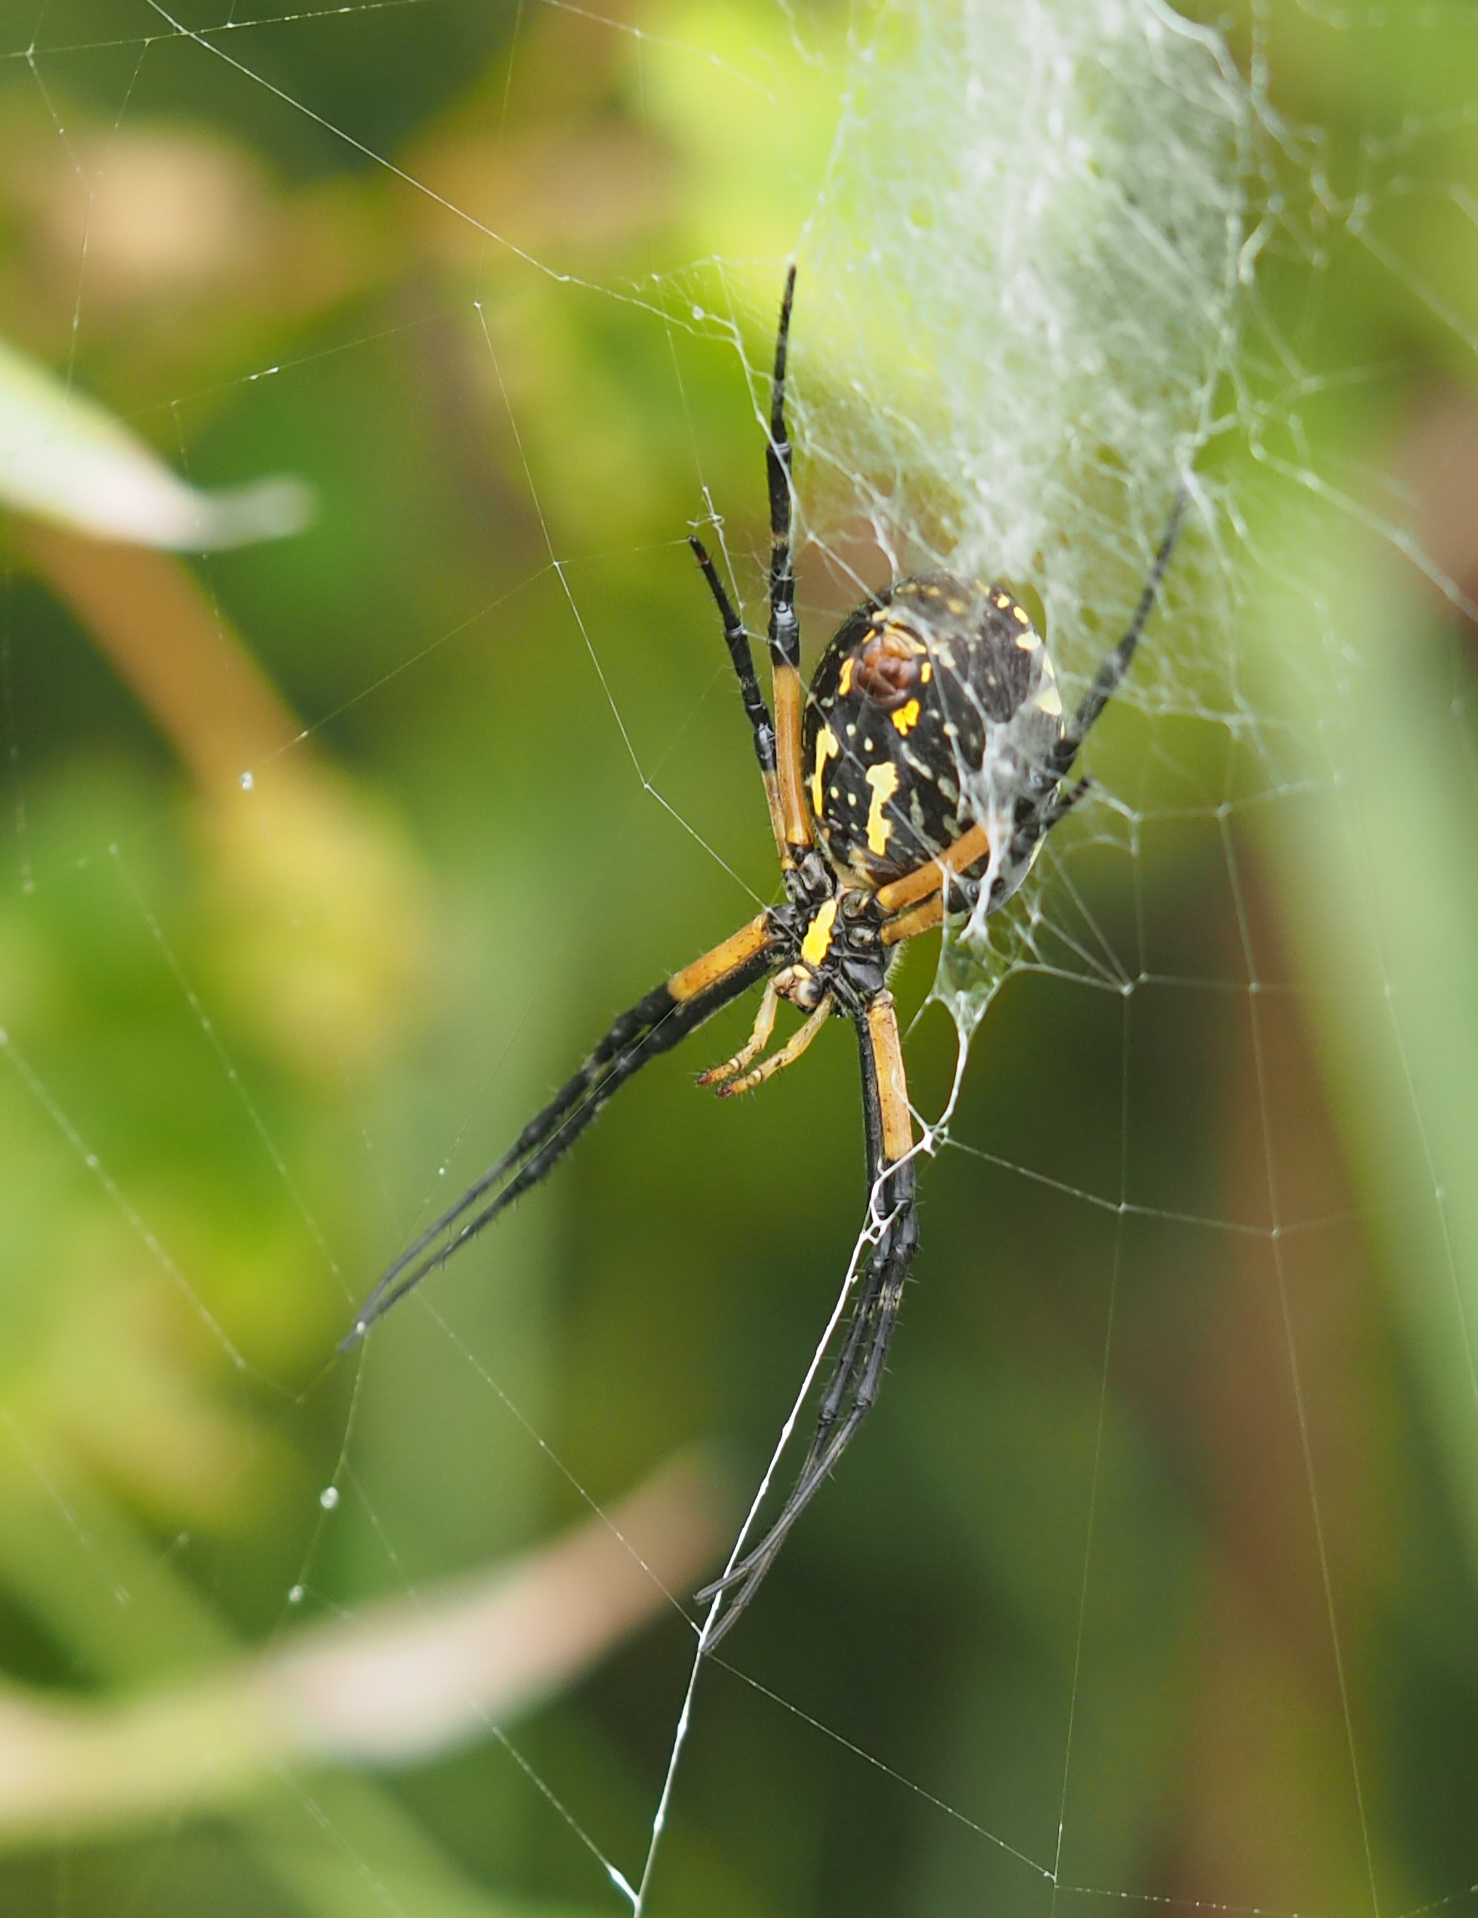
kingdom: Animalia
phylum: Arthropoda
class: Arachnida
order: Araneae
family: Araneidae
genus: Argiope
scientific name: Argiope aurantia
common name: Orb weavers
